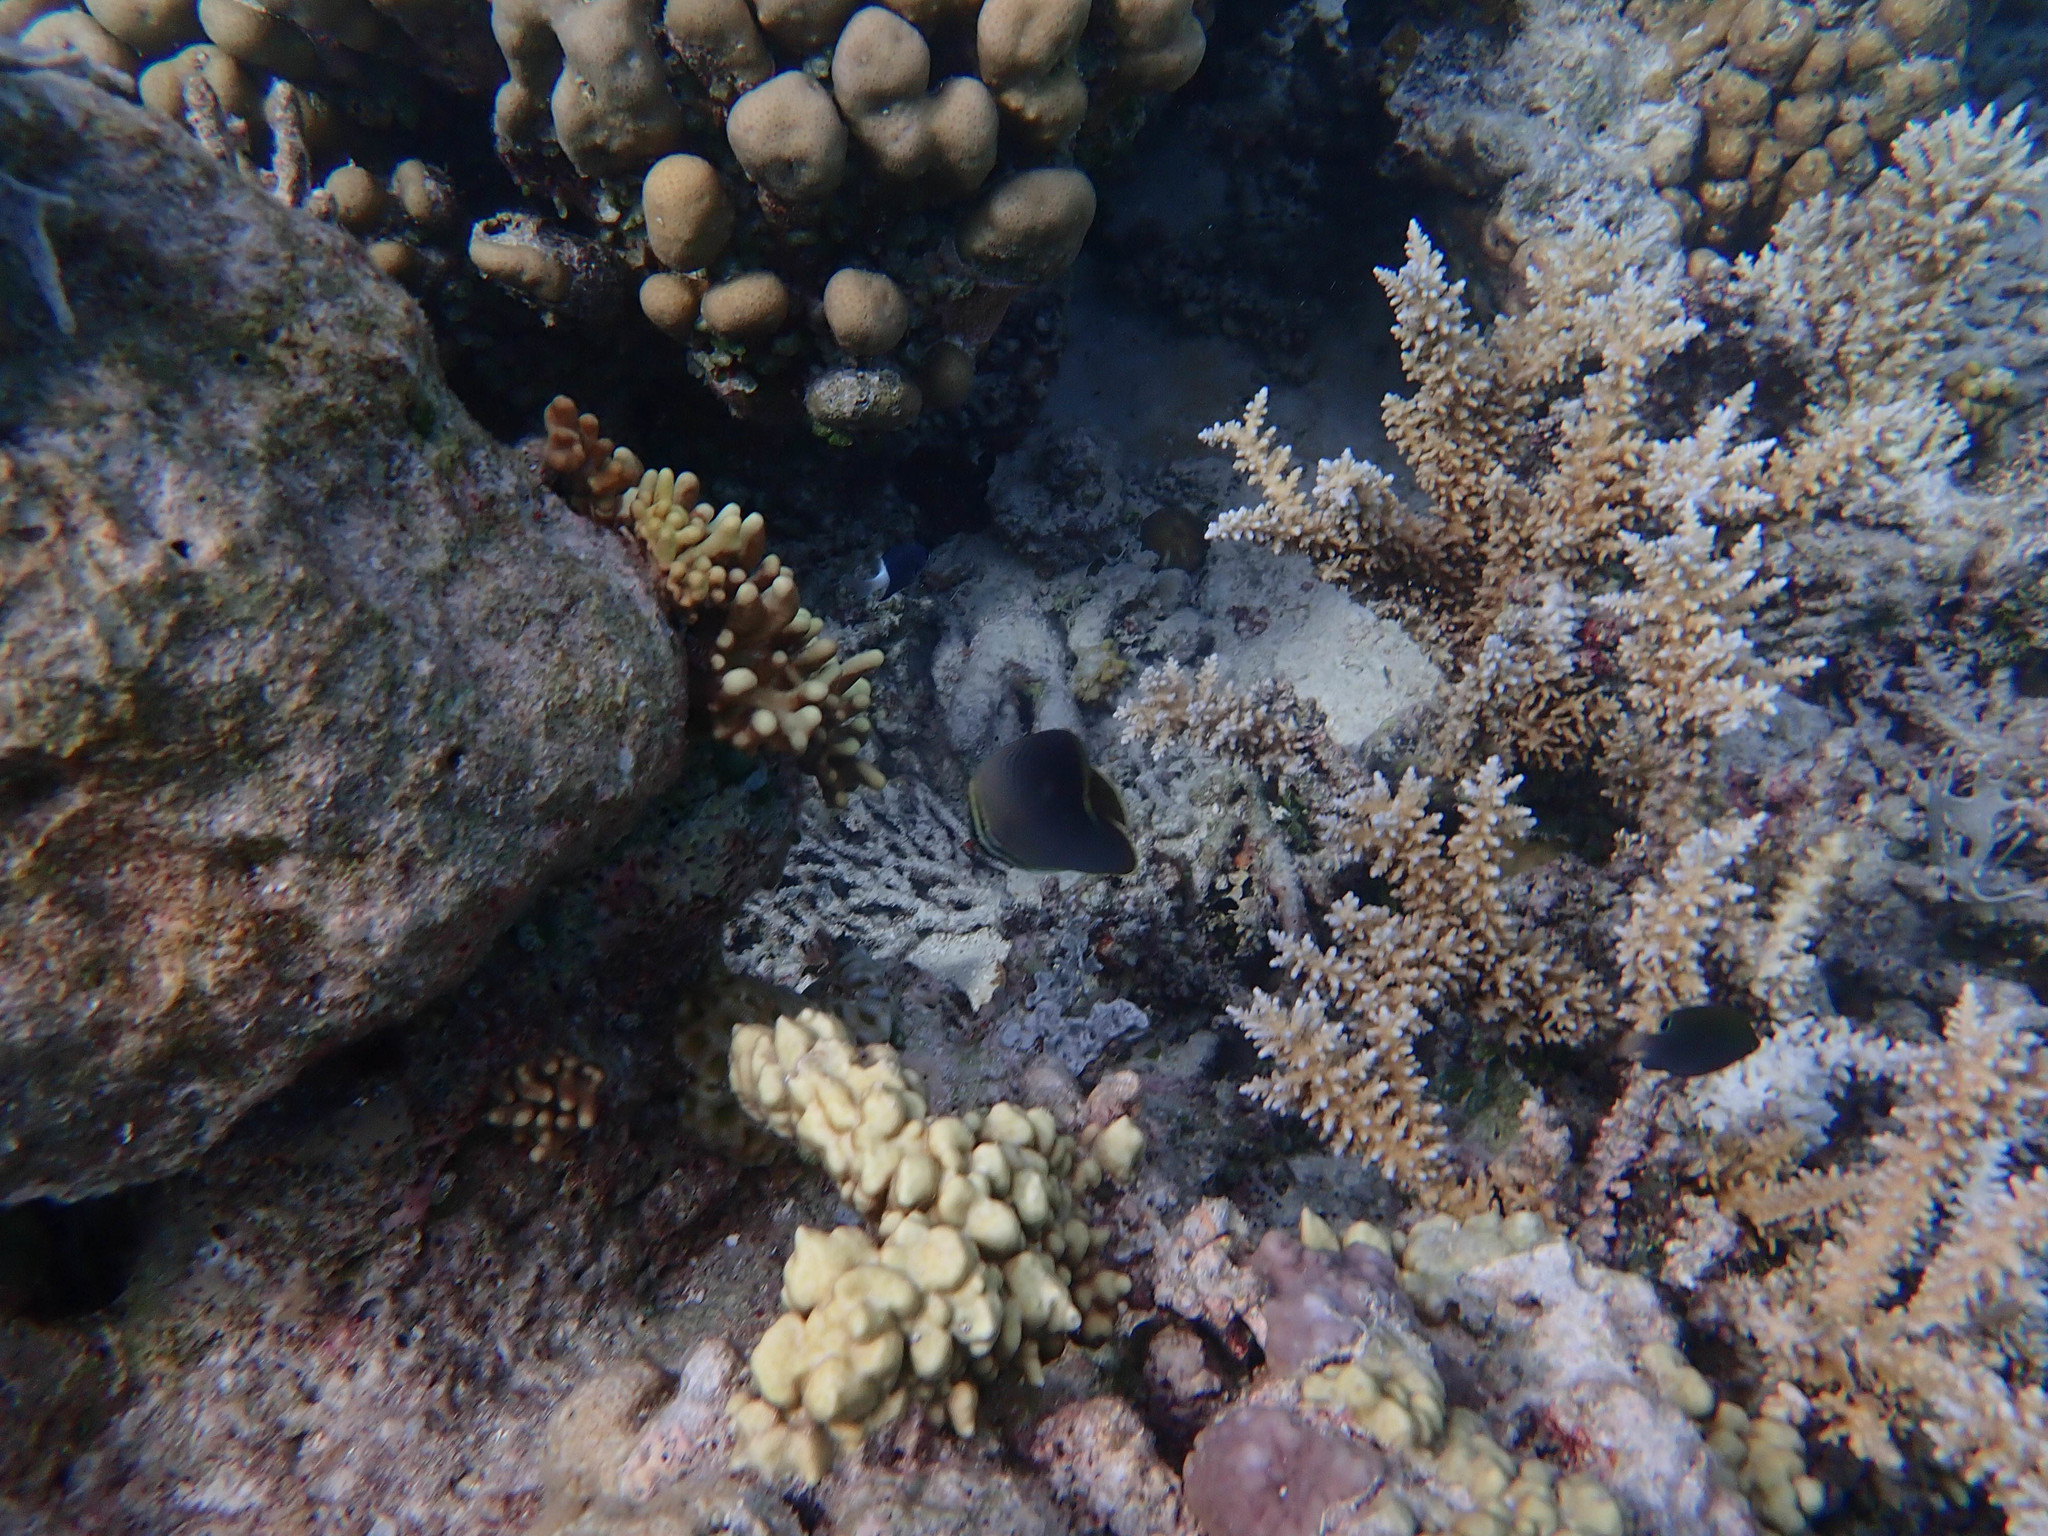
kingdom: Animalia
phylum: Chordata
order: Perciformes
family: Chaetodontidae
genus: Chaetodon
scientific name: Chaetodon baronessa
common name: Triangular butterflyfish
